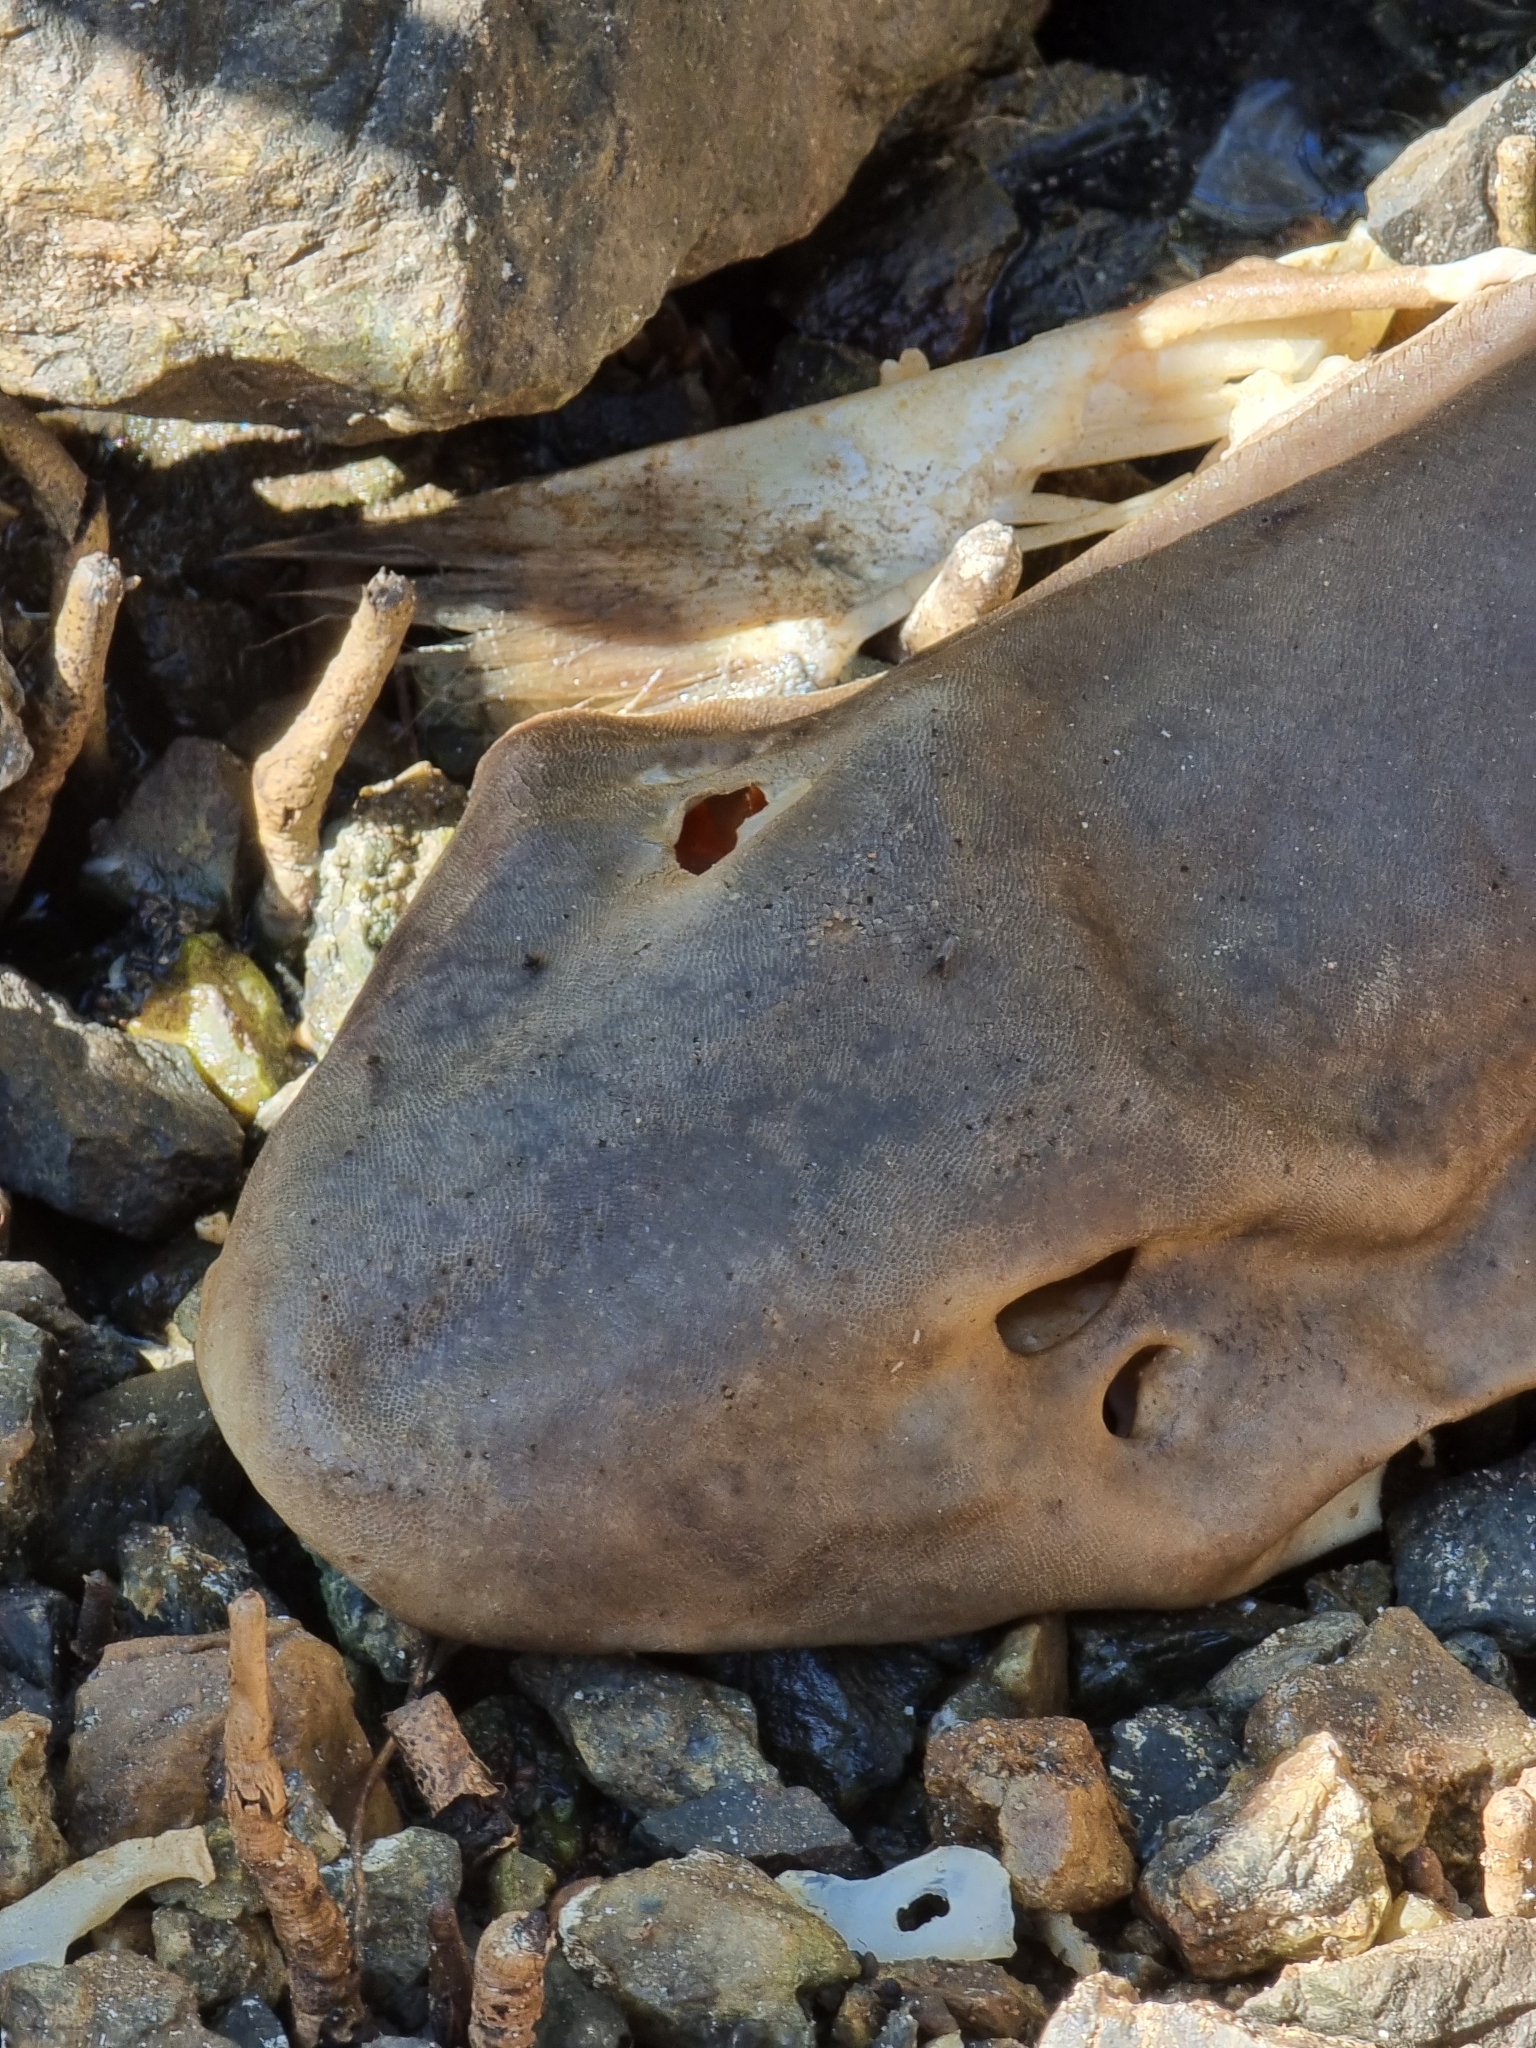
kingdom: Animalia
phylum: Chordata
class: Elasmobranchii
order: Orectolobiformes
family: Hemiscylliidae
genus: Chiloscyllium
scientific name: Chiloscyllium punctatum
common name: Brown-banded catshark
